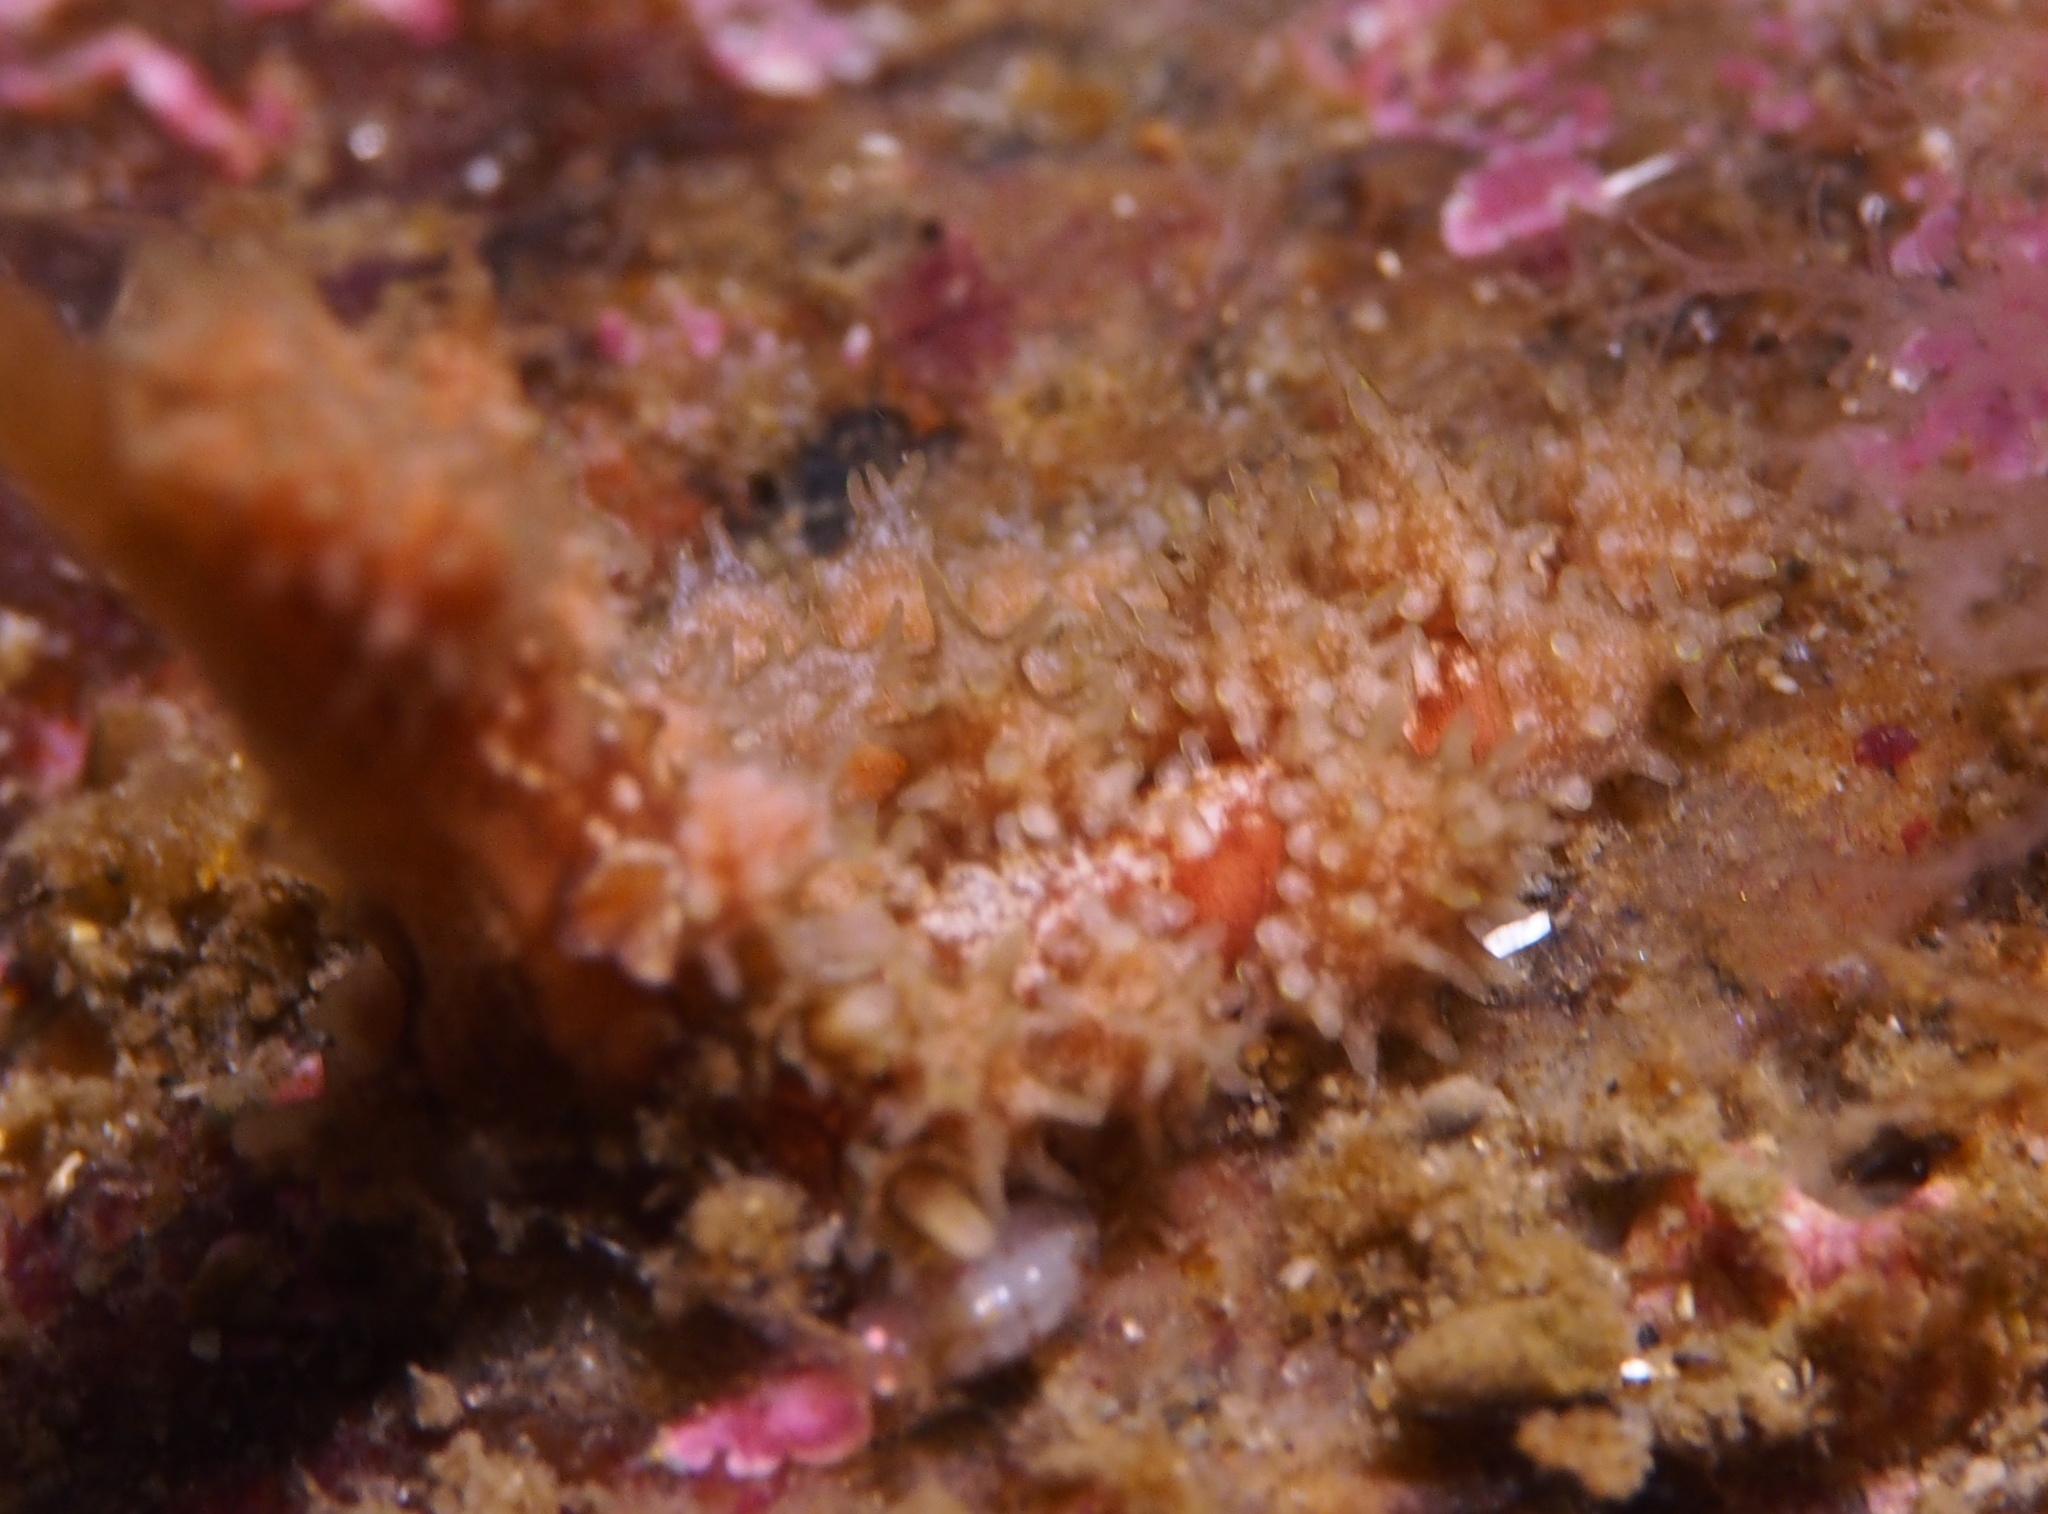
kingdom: Animalia
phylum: Mollusca
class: Gastropoda
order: Nudibranchia
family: Dotidae
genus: Doto
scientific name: Doto hystrix
